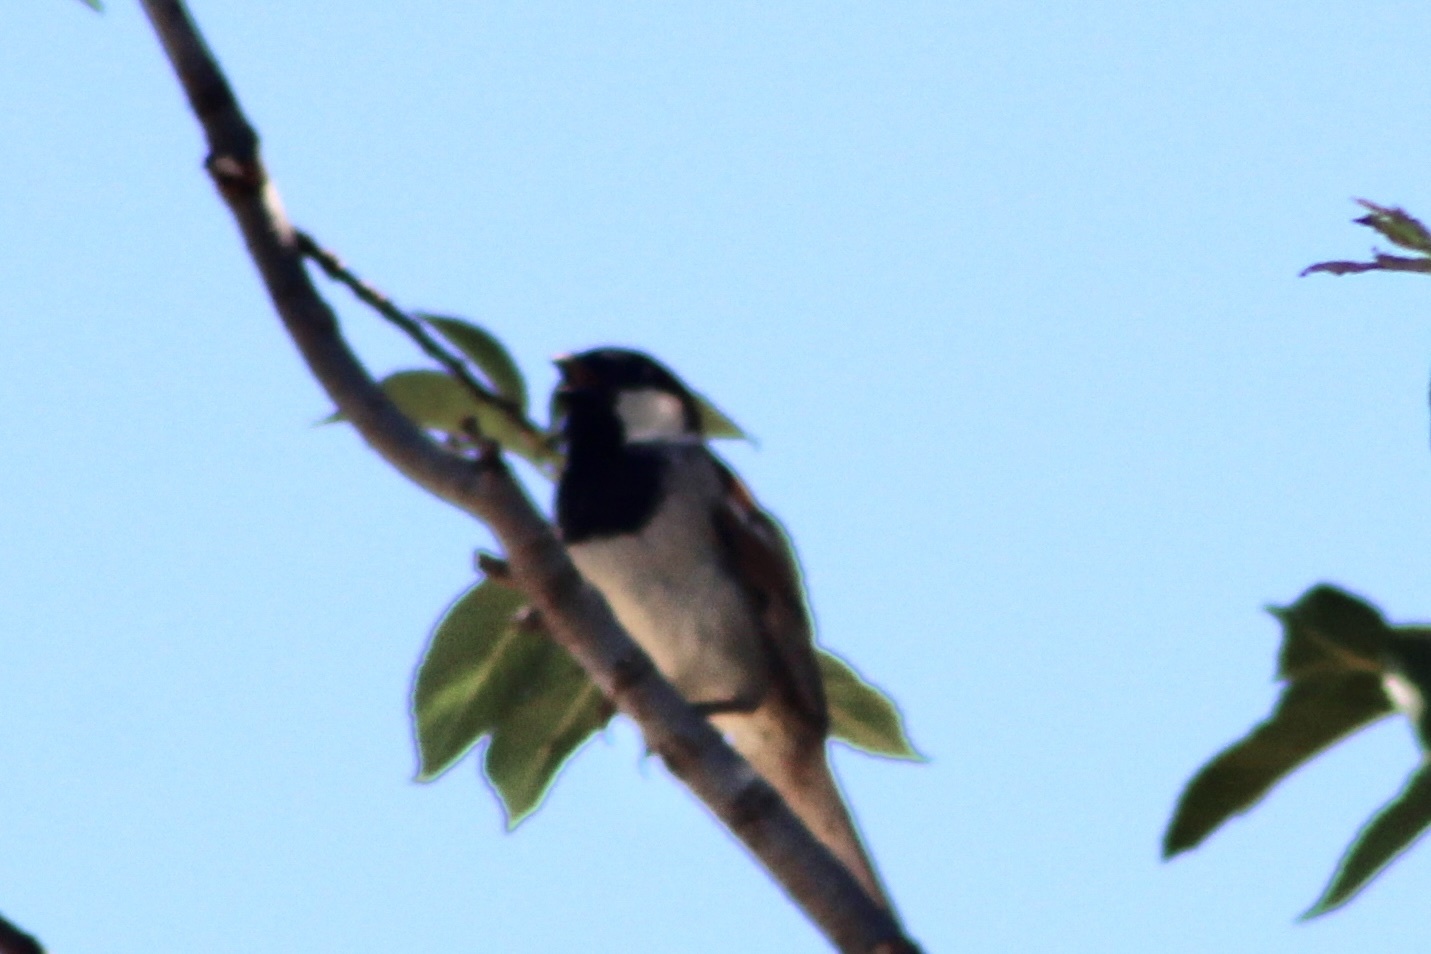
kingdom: Animalia
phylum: Chordata
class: Aves
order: Passeriformes
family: Passeridae
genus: Passer
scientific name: Passer domesticus
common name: House sparrow
